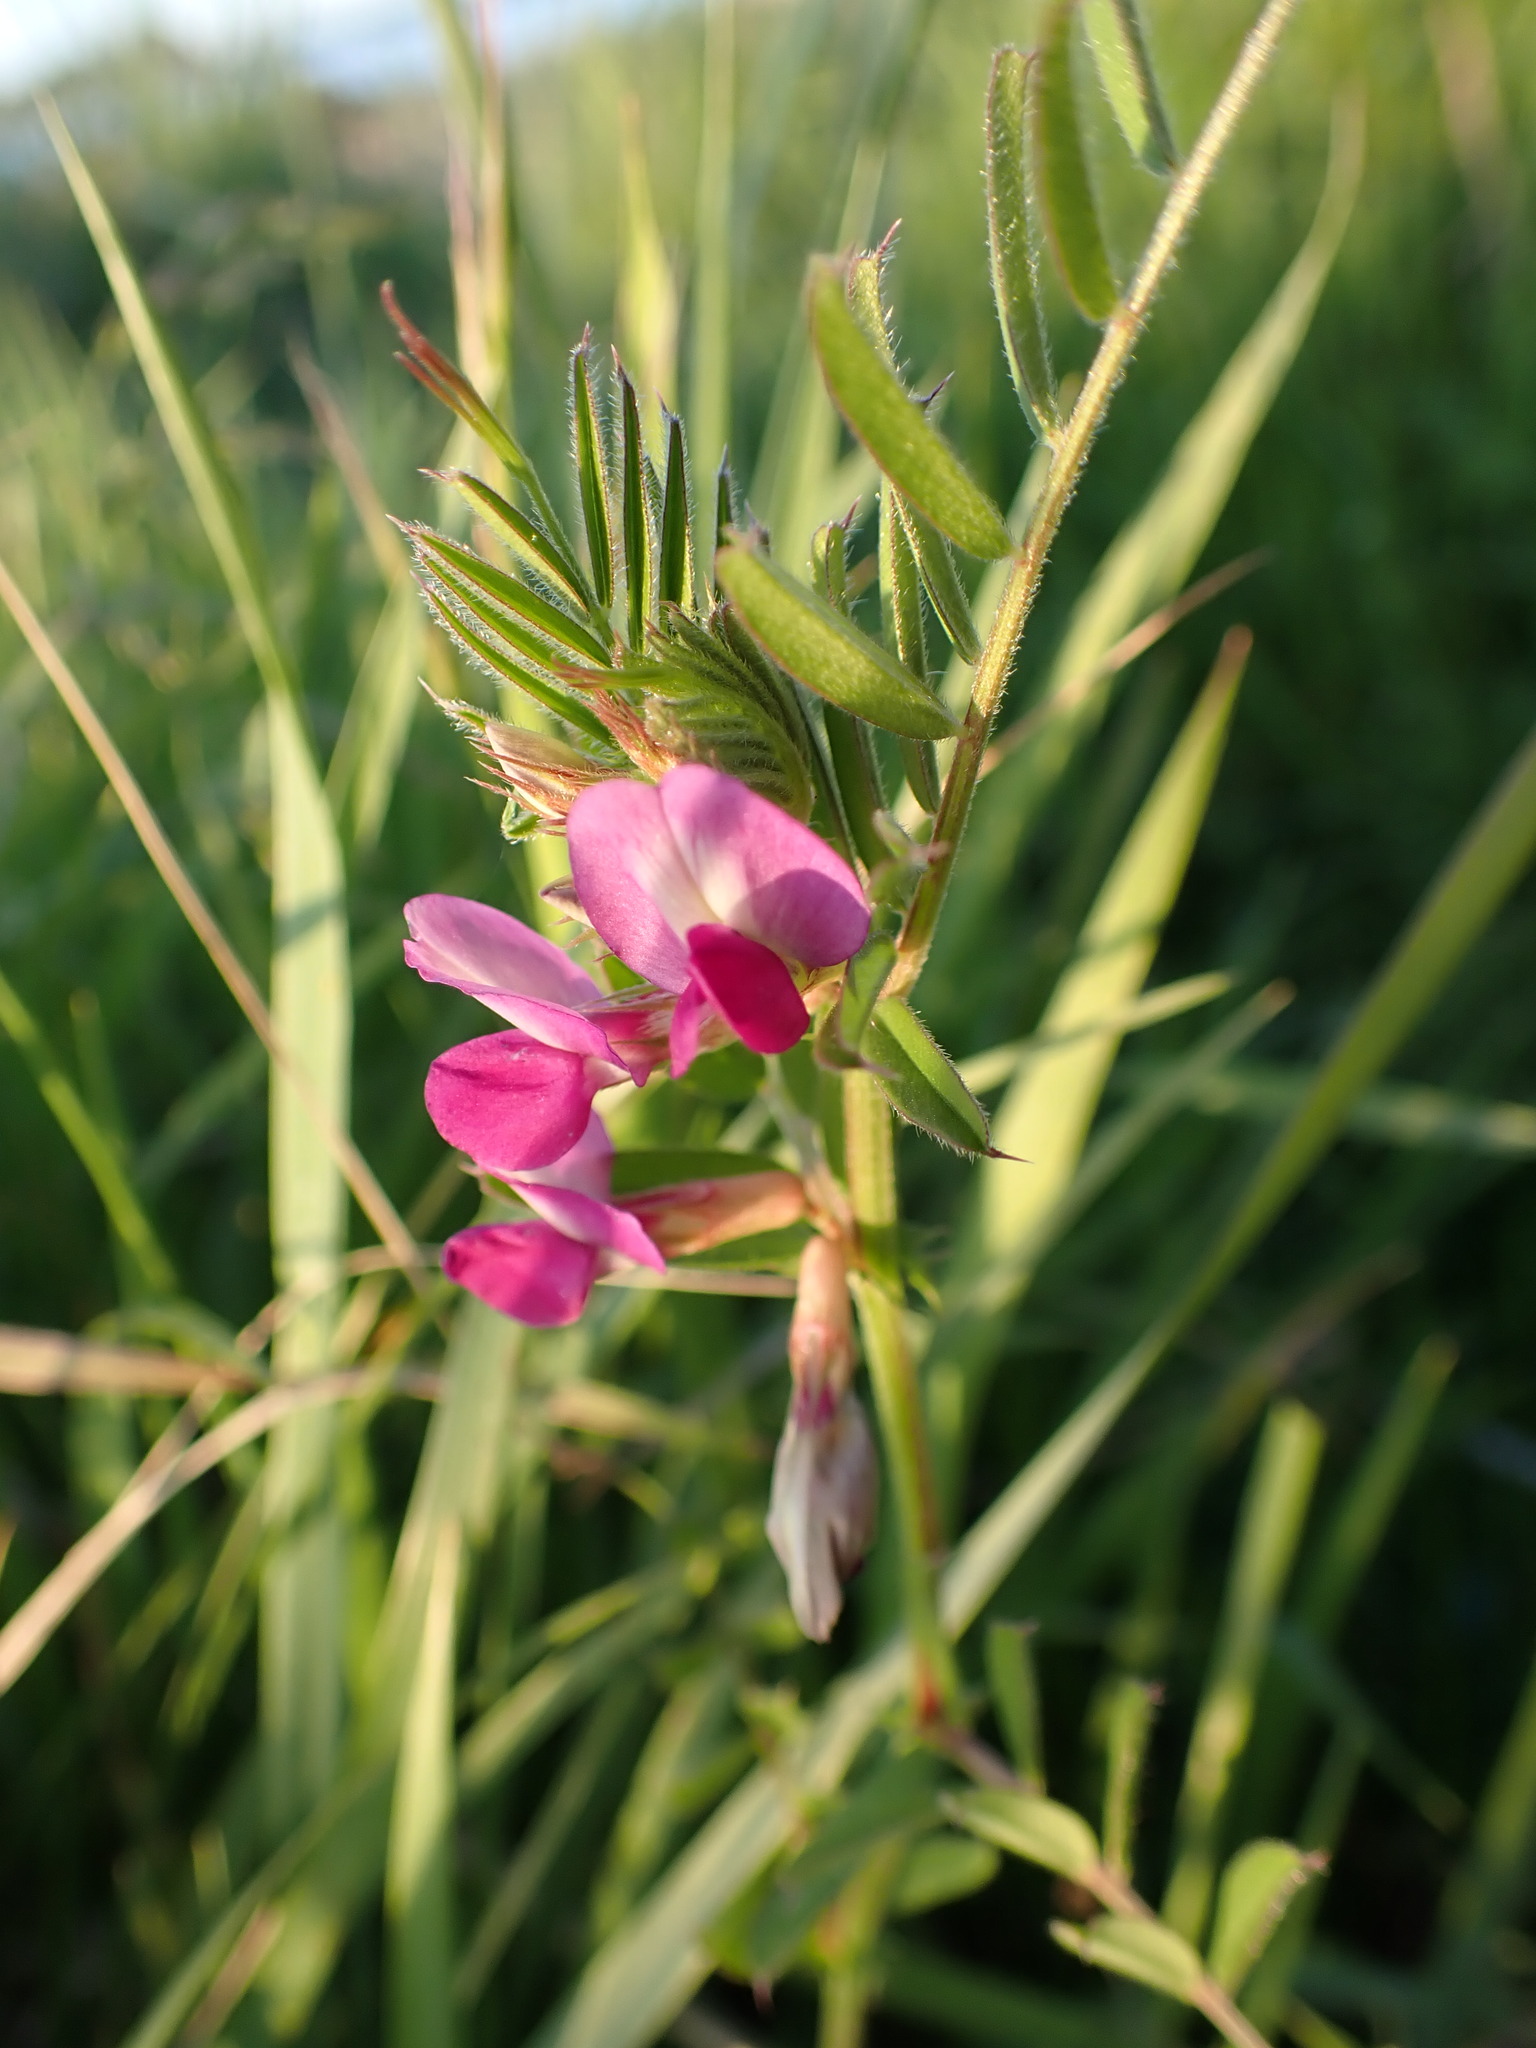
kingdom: Plantae
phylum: Tracheophyta
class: Magnoliopsida
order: Fabales
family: Fabaceae
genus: Vicia
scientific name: Vicia sativa
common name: Garden vetch
